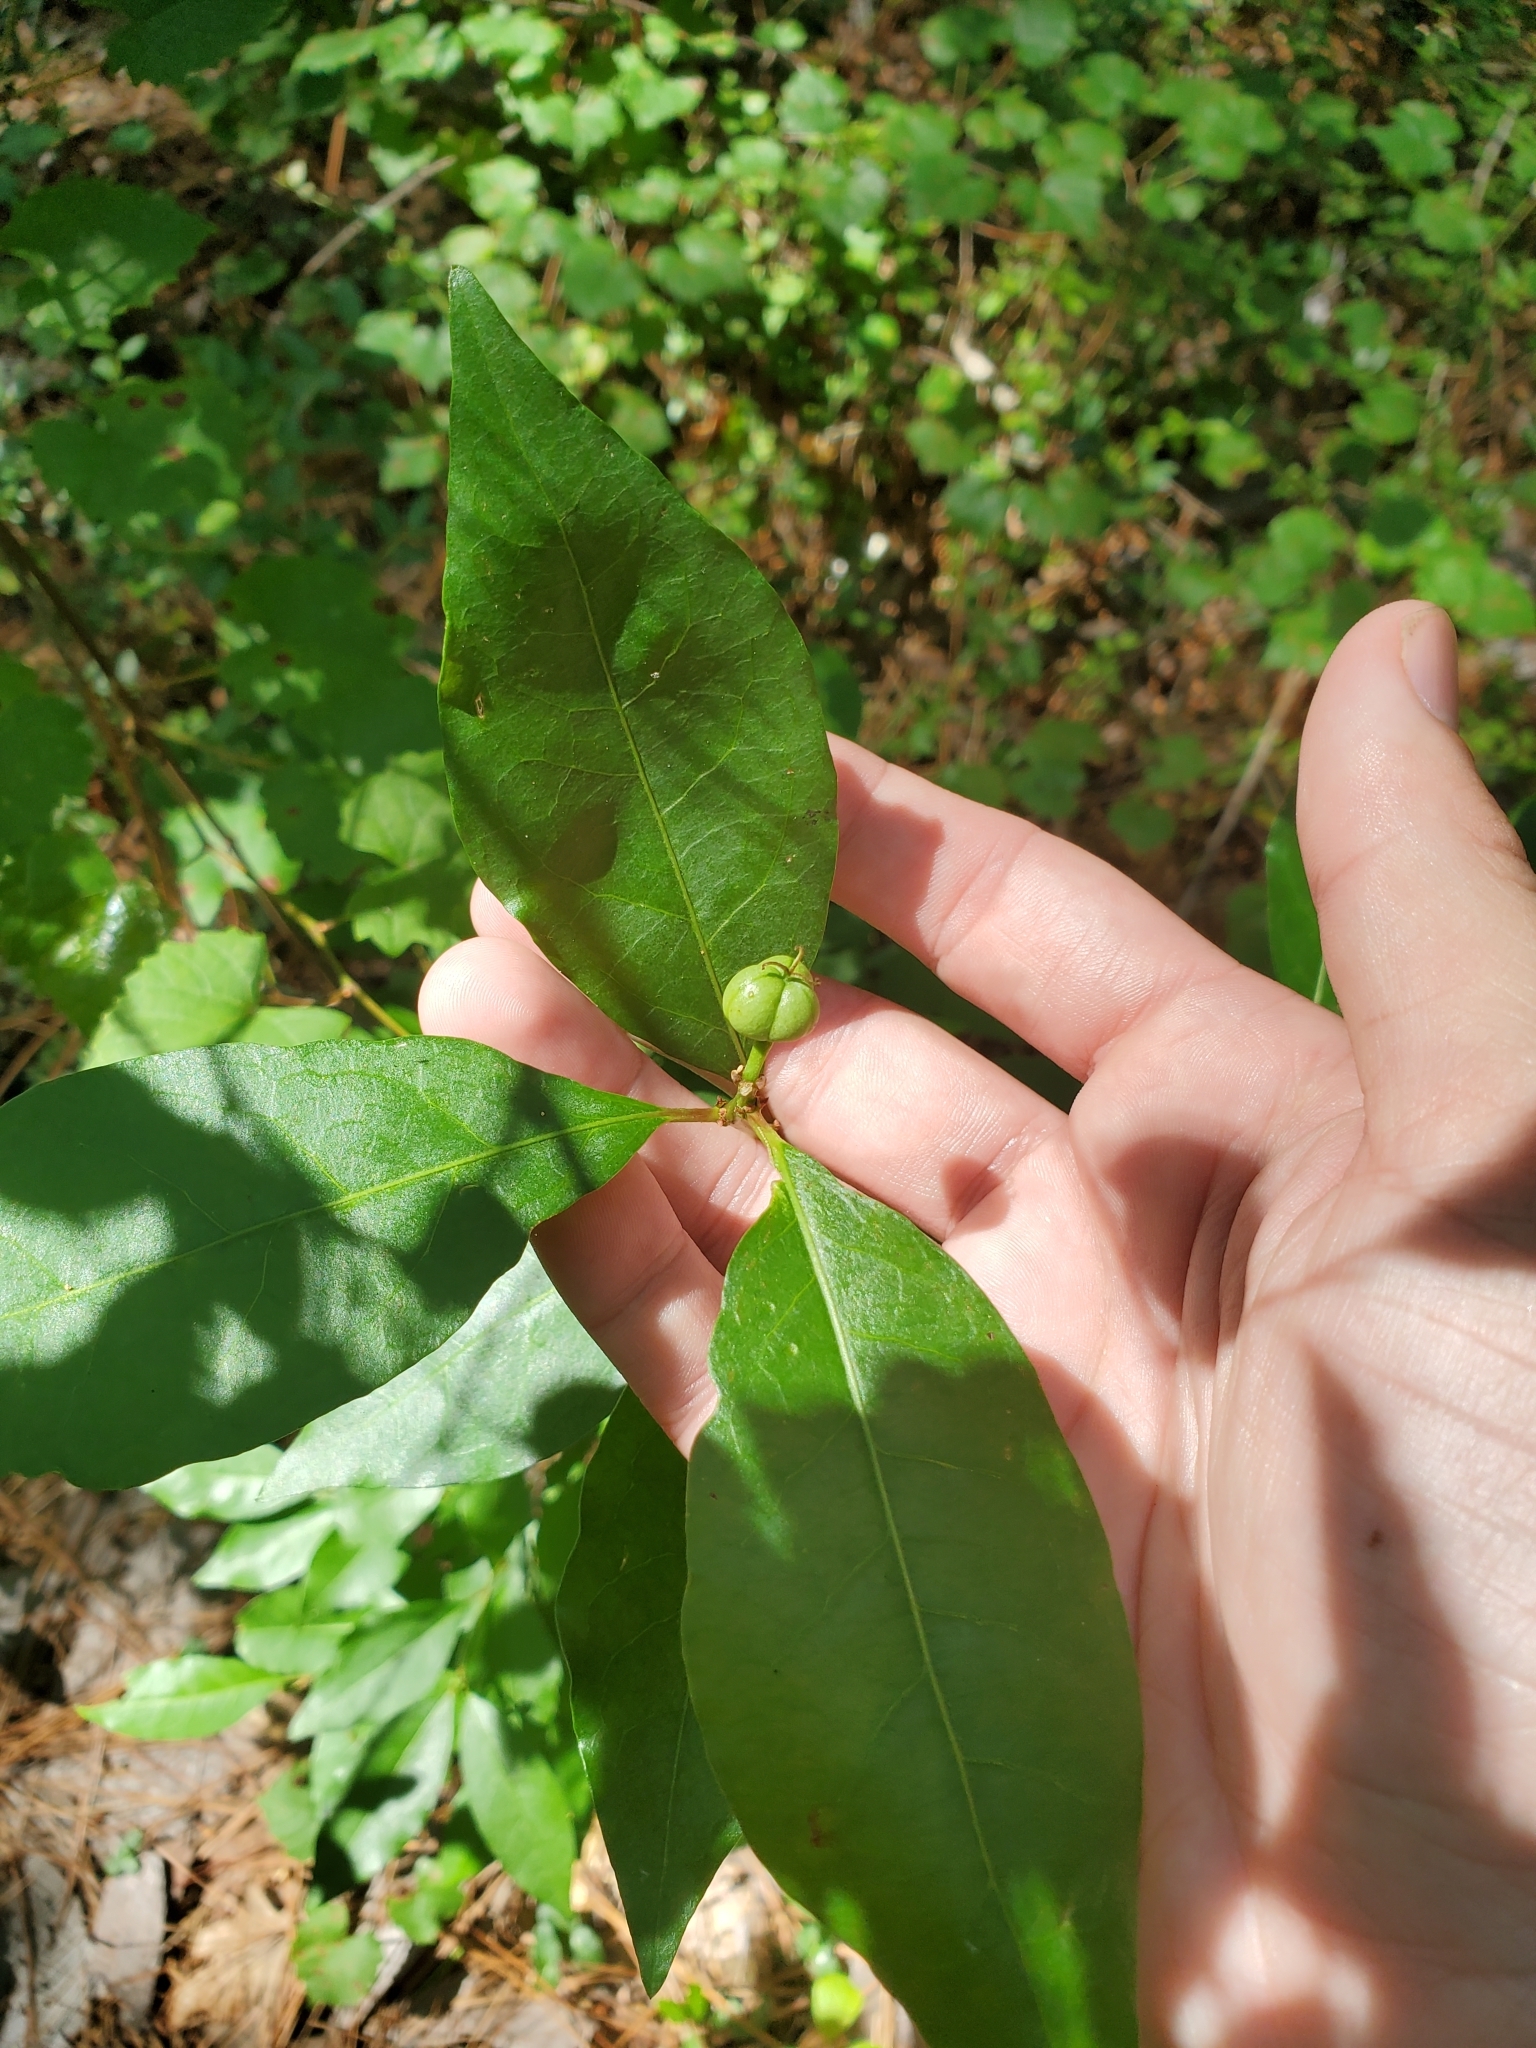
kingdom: Plantae
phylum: Tracheophyta
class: Magnoliopsida
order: Malpighiales
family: Euphorbiaceae
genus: Ditrysinia
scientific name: Ditrysinia fruticosa
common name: Gulf sebastian-bush
